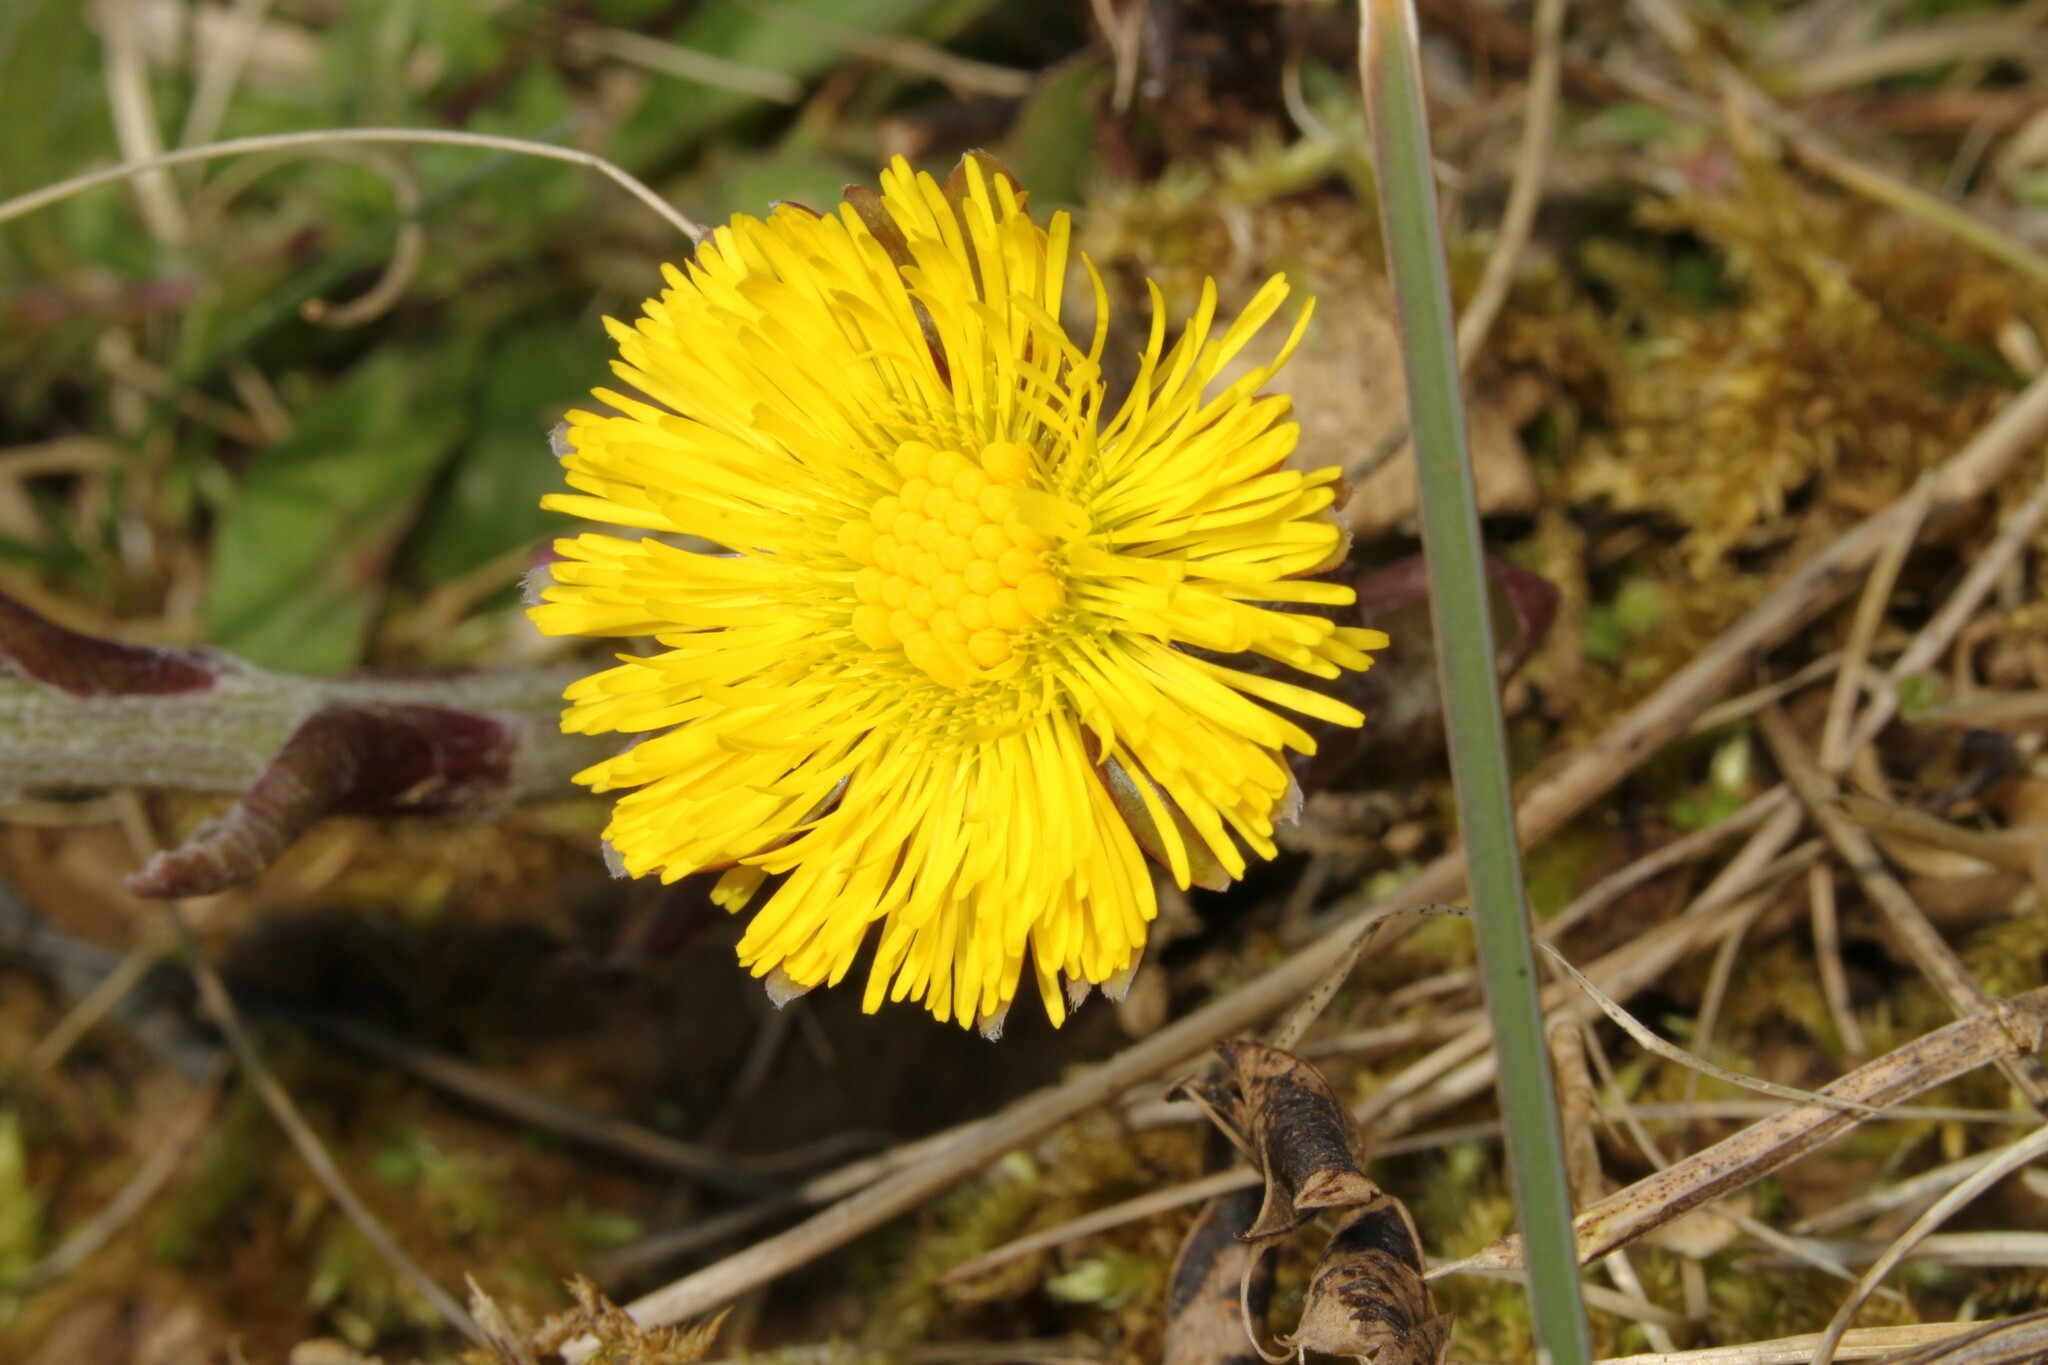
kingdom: Plantae
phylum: Tracheophyta
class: Magnoliopsida
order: Asterales
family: Asteraceae
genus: Tussilago
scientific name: Tussilago farfara
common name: Coltsfoot
